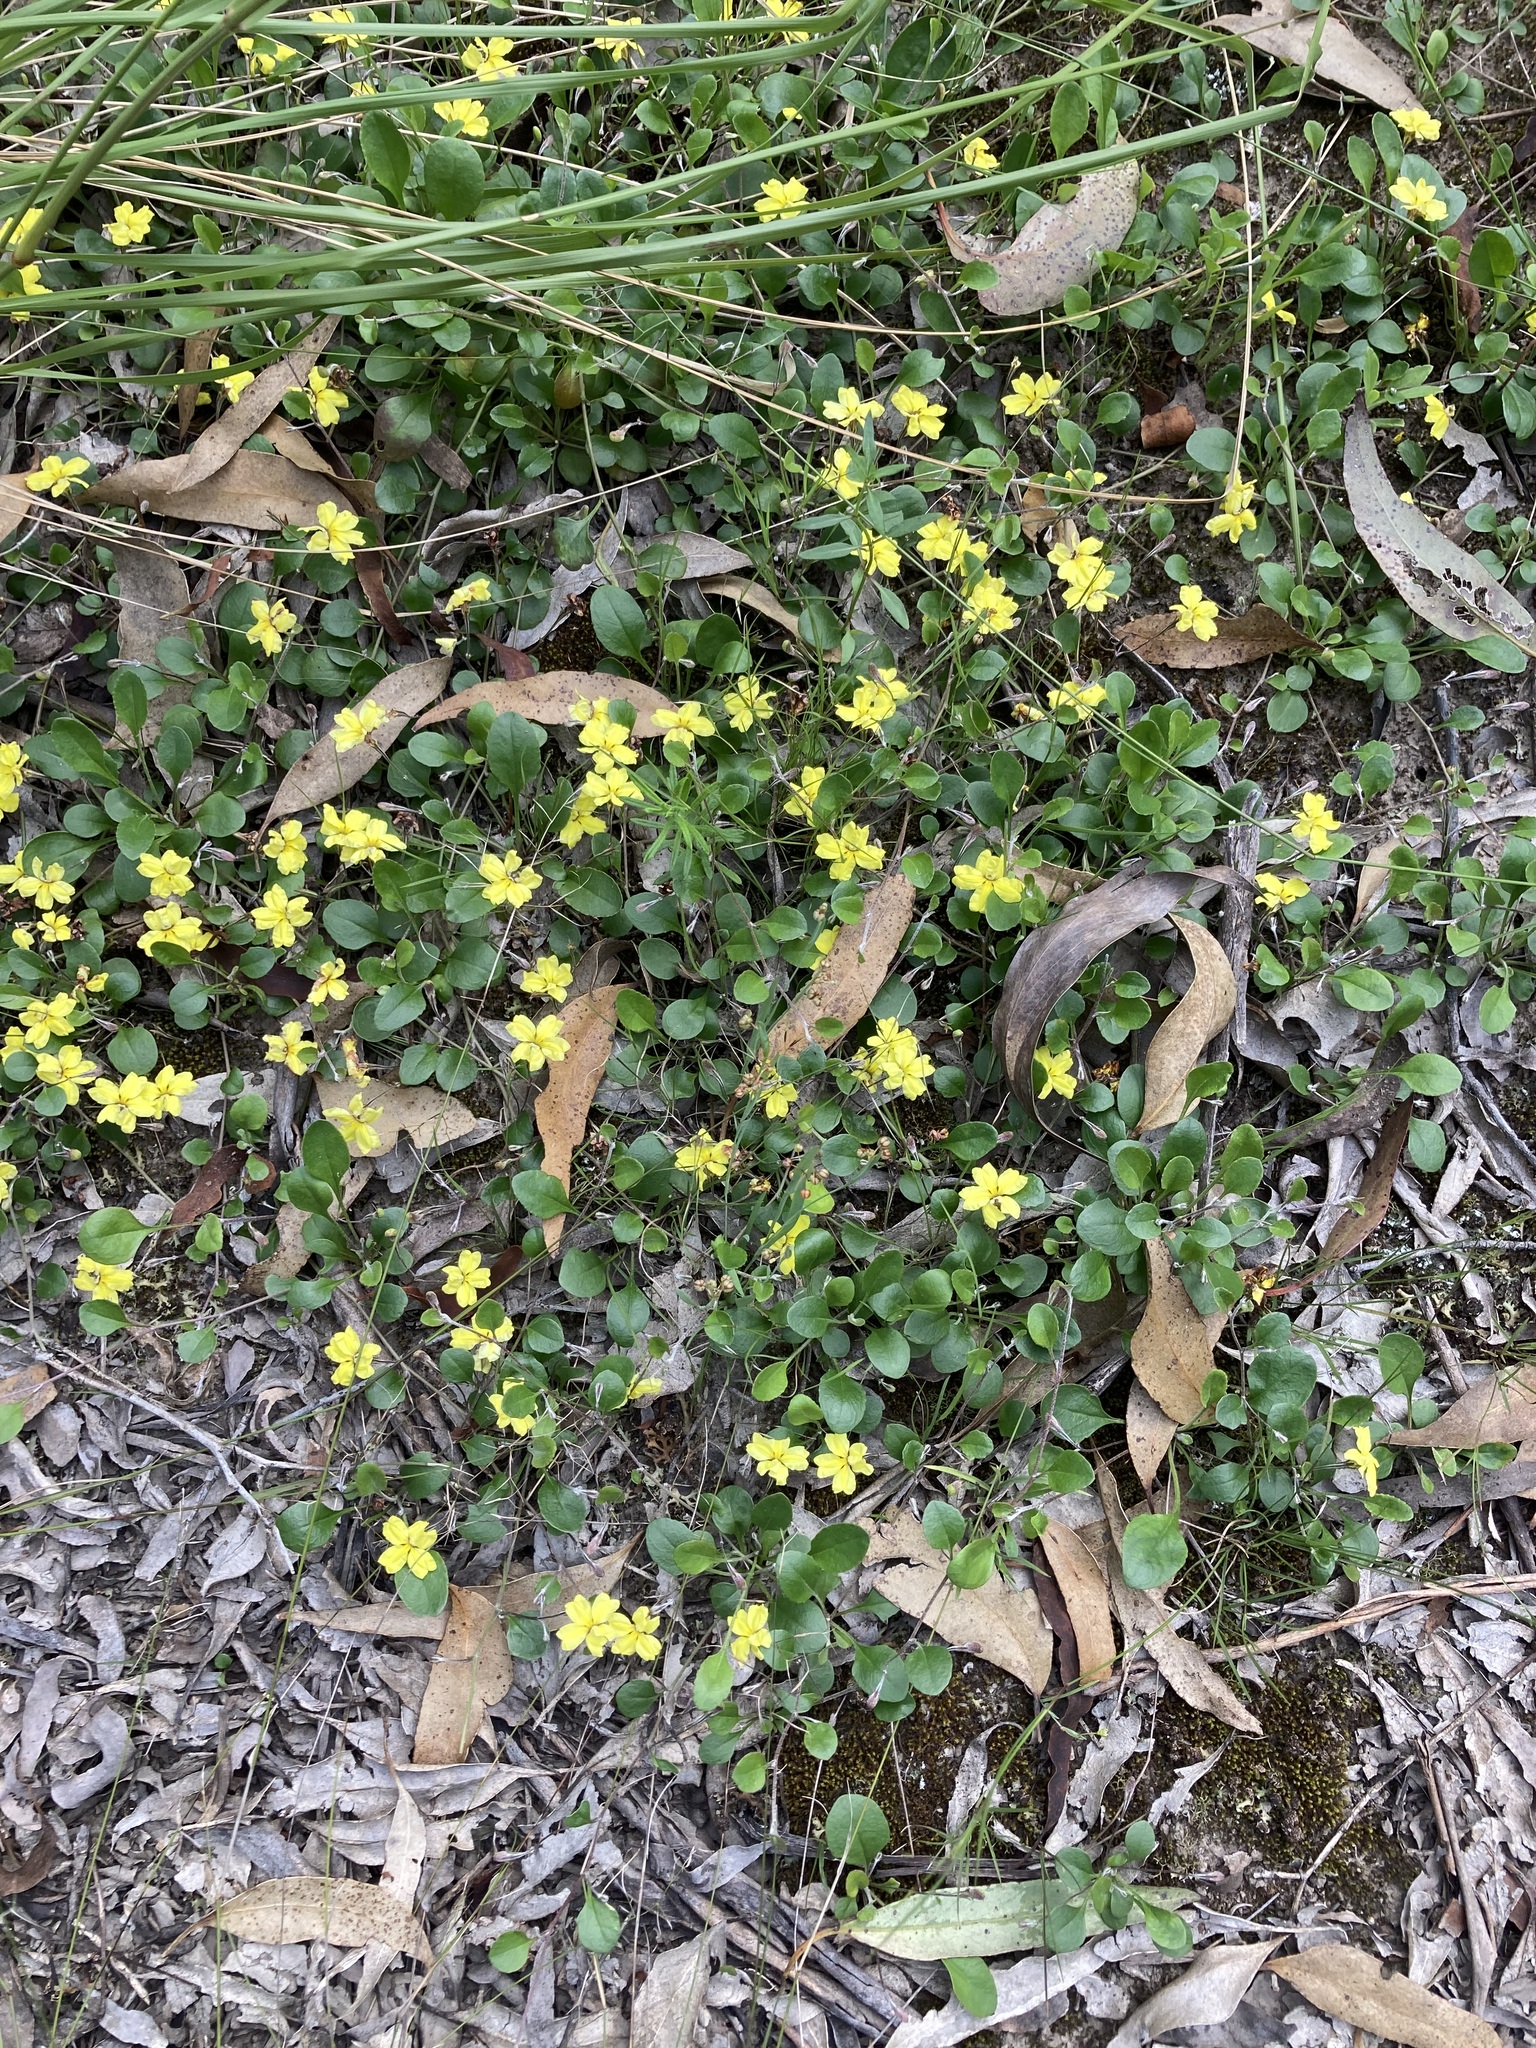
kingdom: Plantae
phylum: Tracheophyta
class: Magnoliopsida
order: Asterales
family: Goodeniaceae
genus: Goodenia
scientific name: Goodenia hederacea
